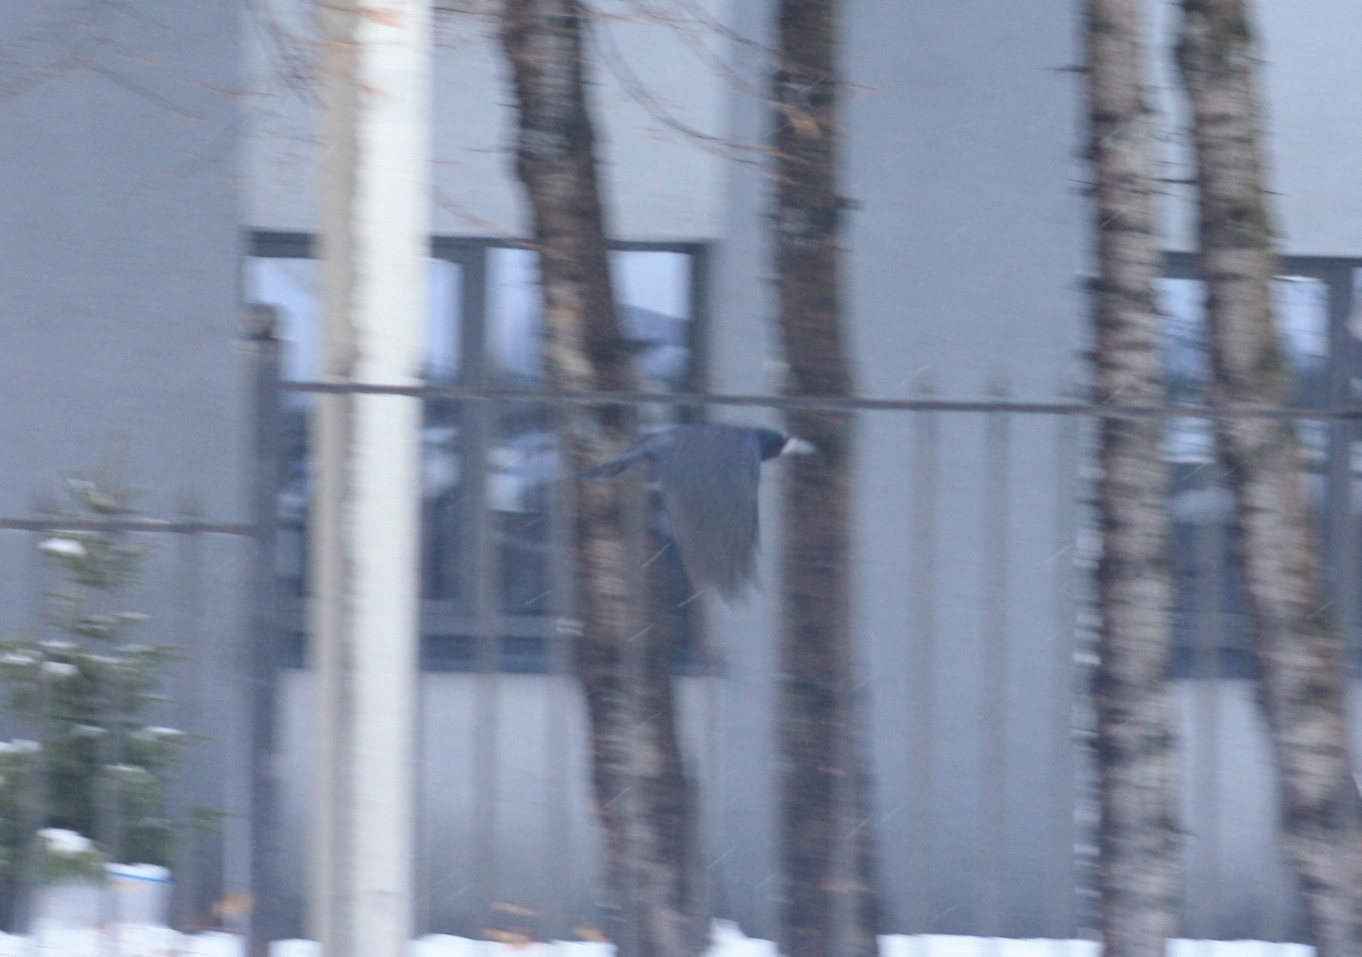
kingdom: Animalia
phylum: Chordata
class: Aves
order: Passeriformes
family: Corvidae
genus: Corvus
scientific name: Corvus frugilegus
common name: Rook
